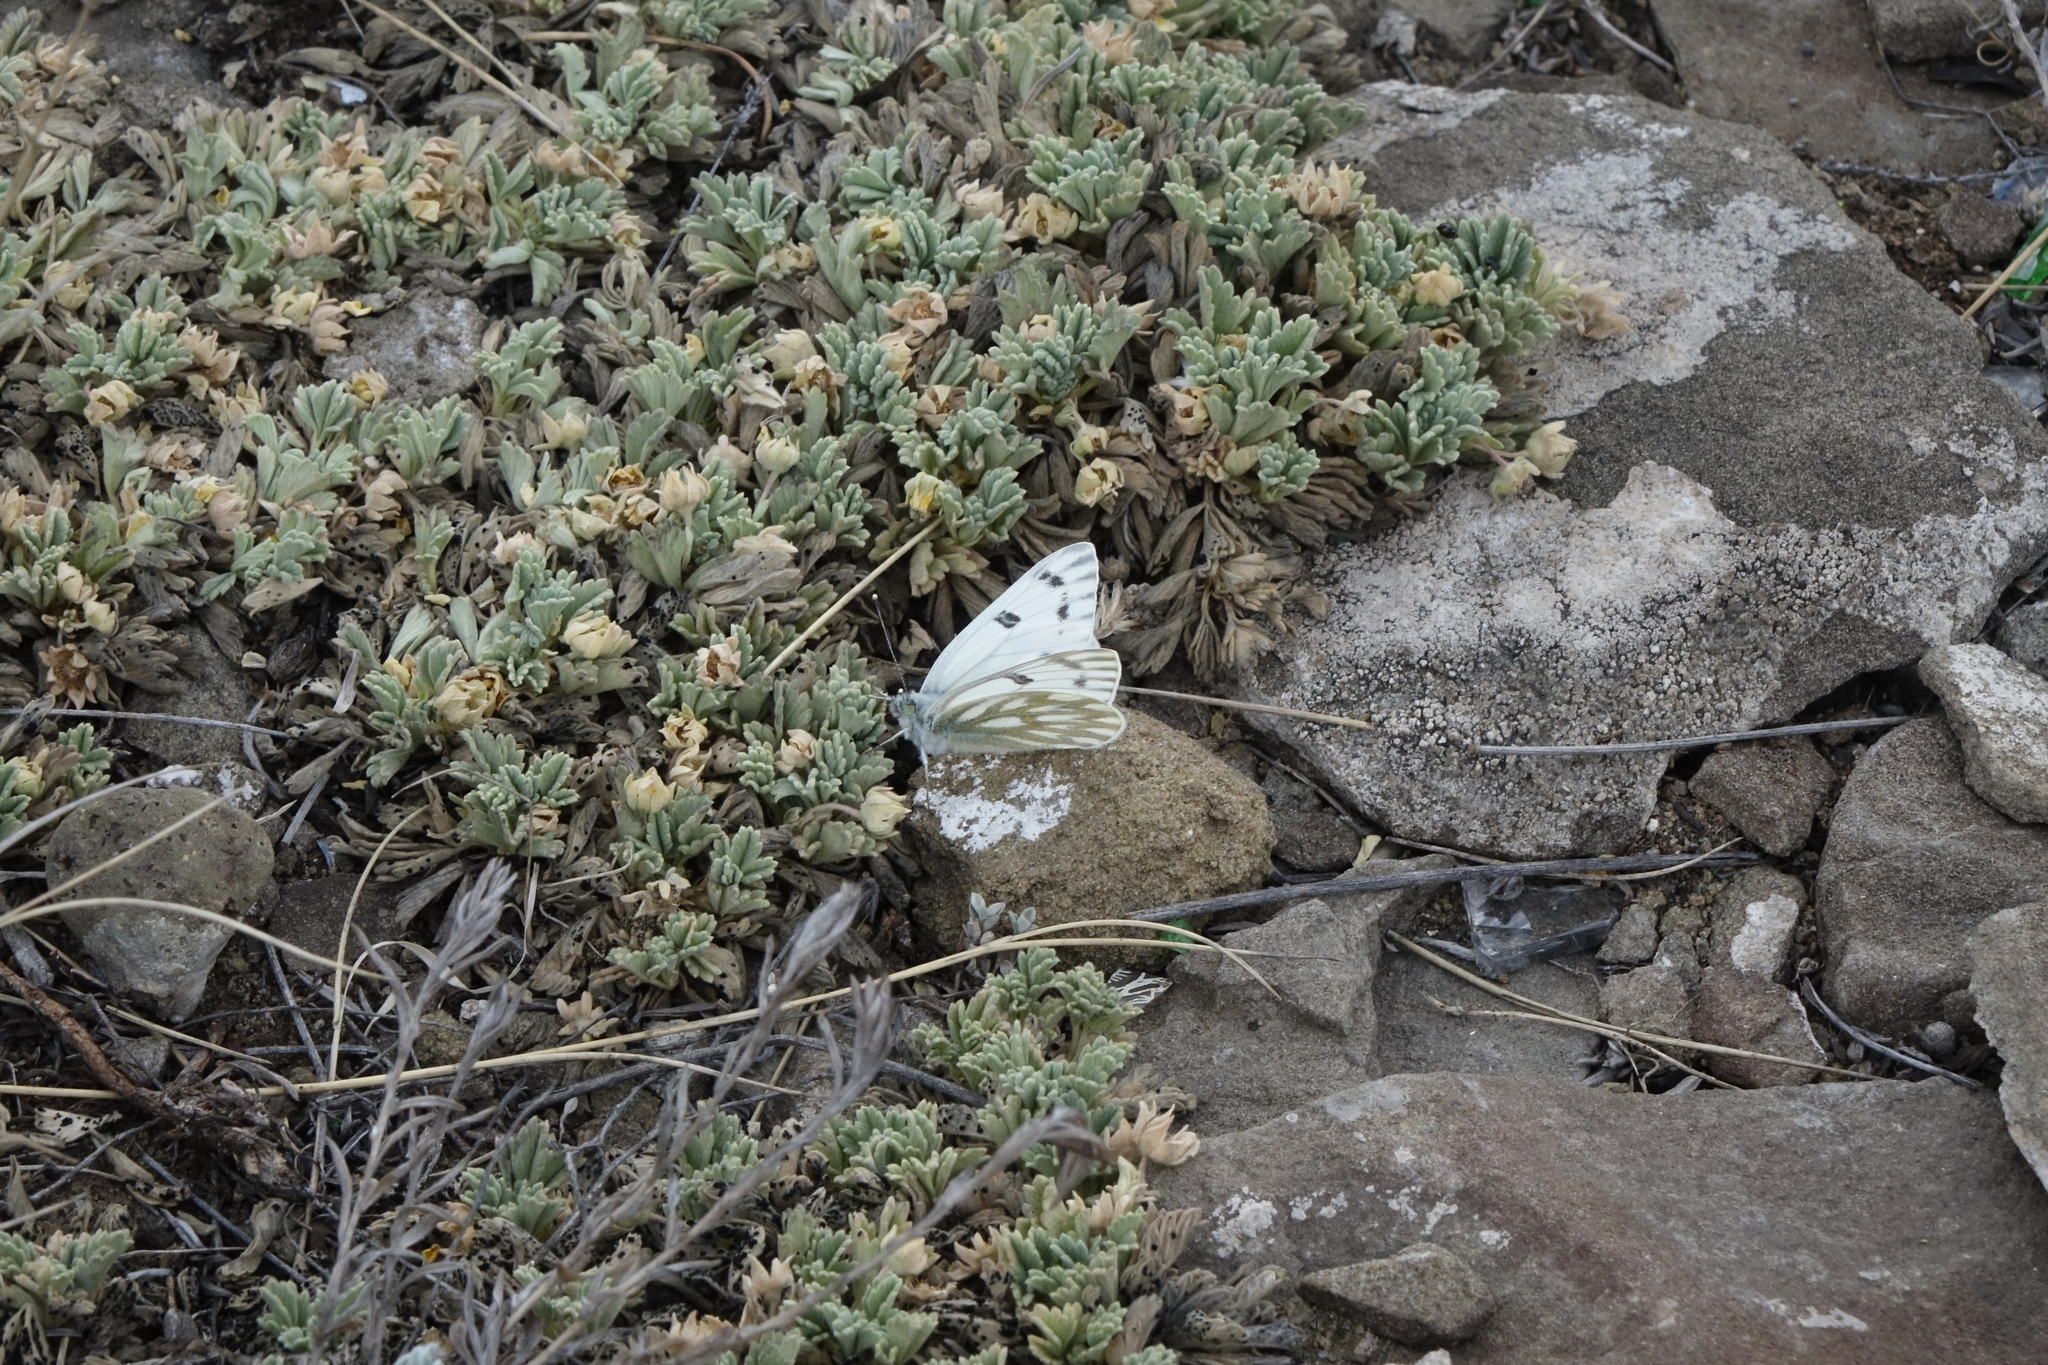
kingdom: Animalia
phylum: Arthropoda
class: Insecta
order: Lepidoptera
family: Pieridae
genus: Pontia
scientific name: Pontia callidice
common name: Peak white
